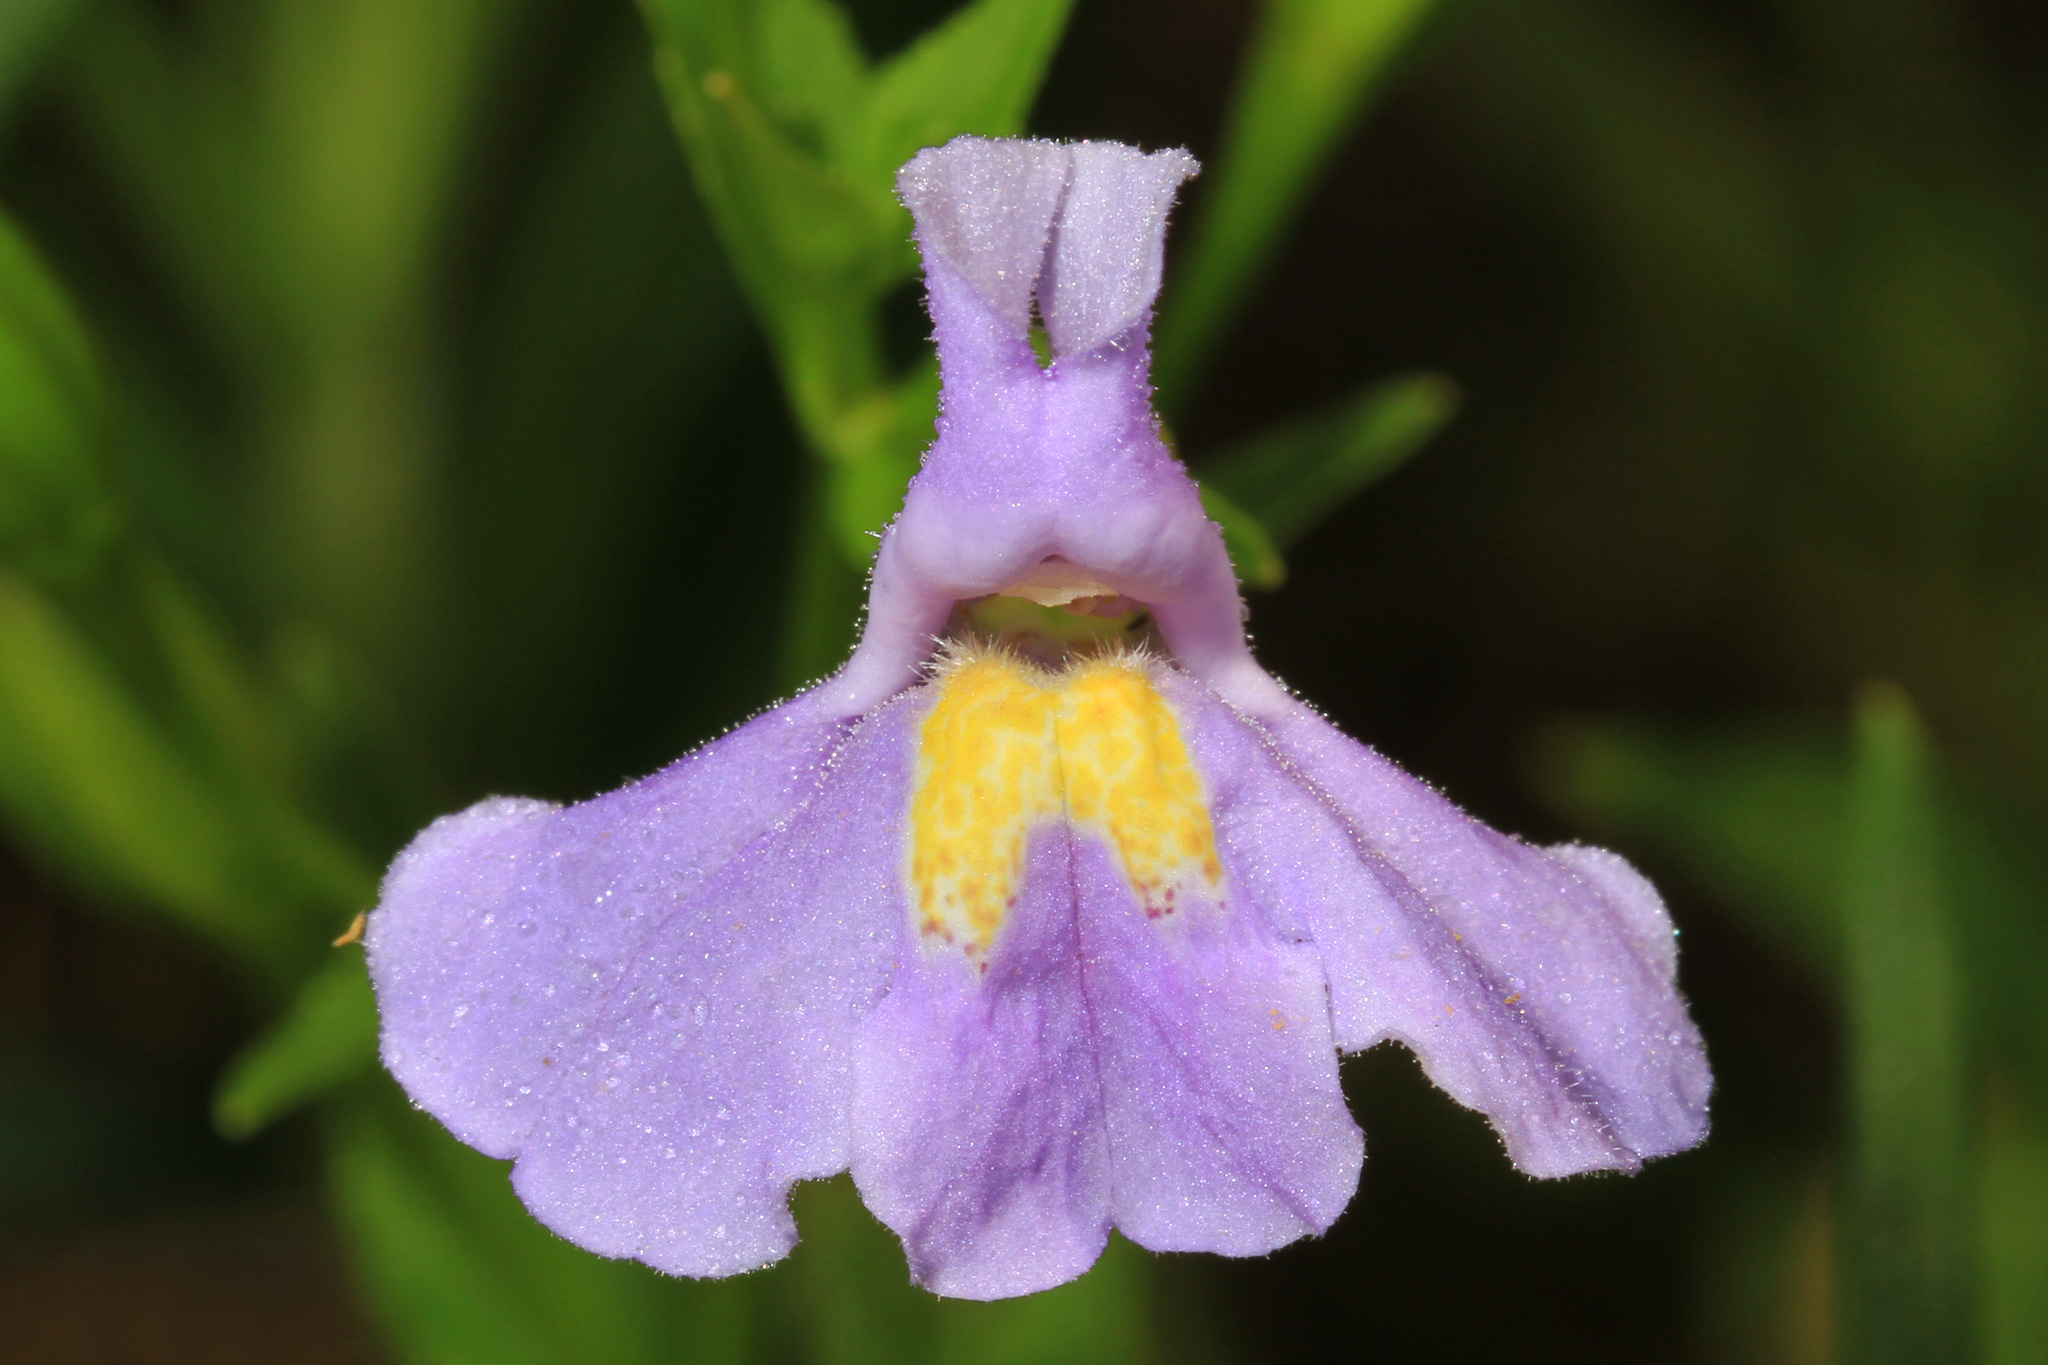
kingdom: Plantae
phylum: Tracheophyta
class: Magnoliopsida
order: Lamiales
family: Phrymaceae
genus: Mimulus
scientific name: Mimulus ringens
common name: Allegheny monkeyflower
